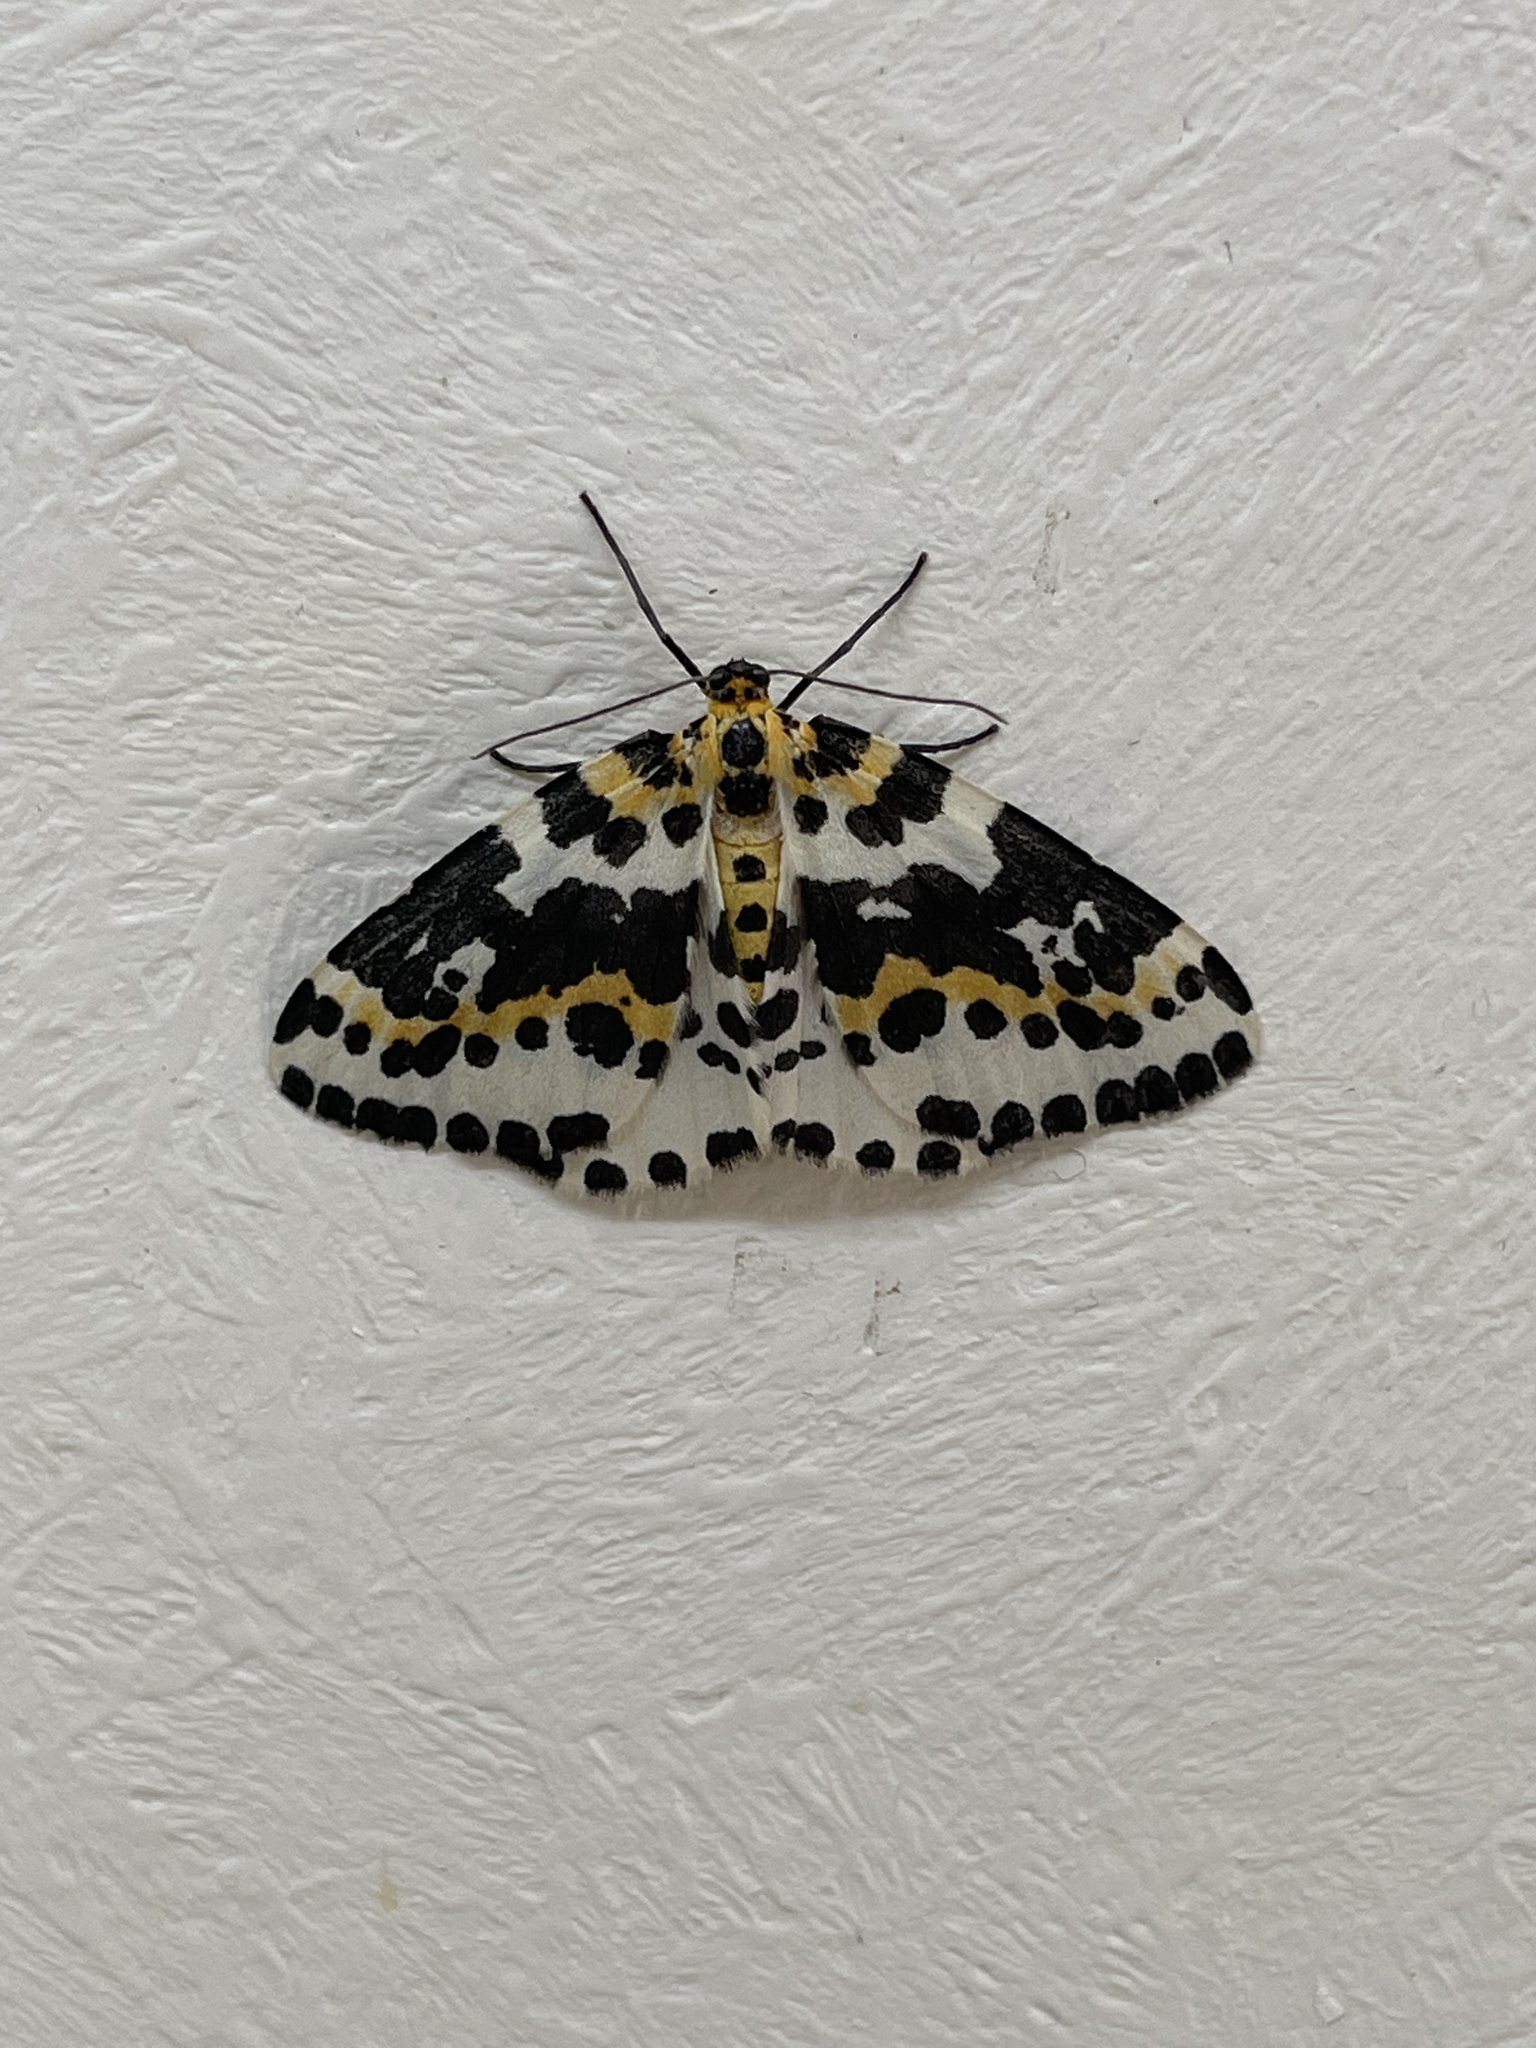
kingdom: Animalia
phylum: Arthropoda
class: Insecta
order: Lepidoptera
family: Geometridae
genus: Abraxas
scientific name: Abraxas grossulariata
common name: Magpie
